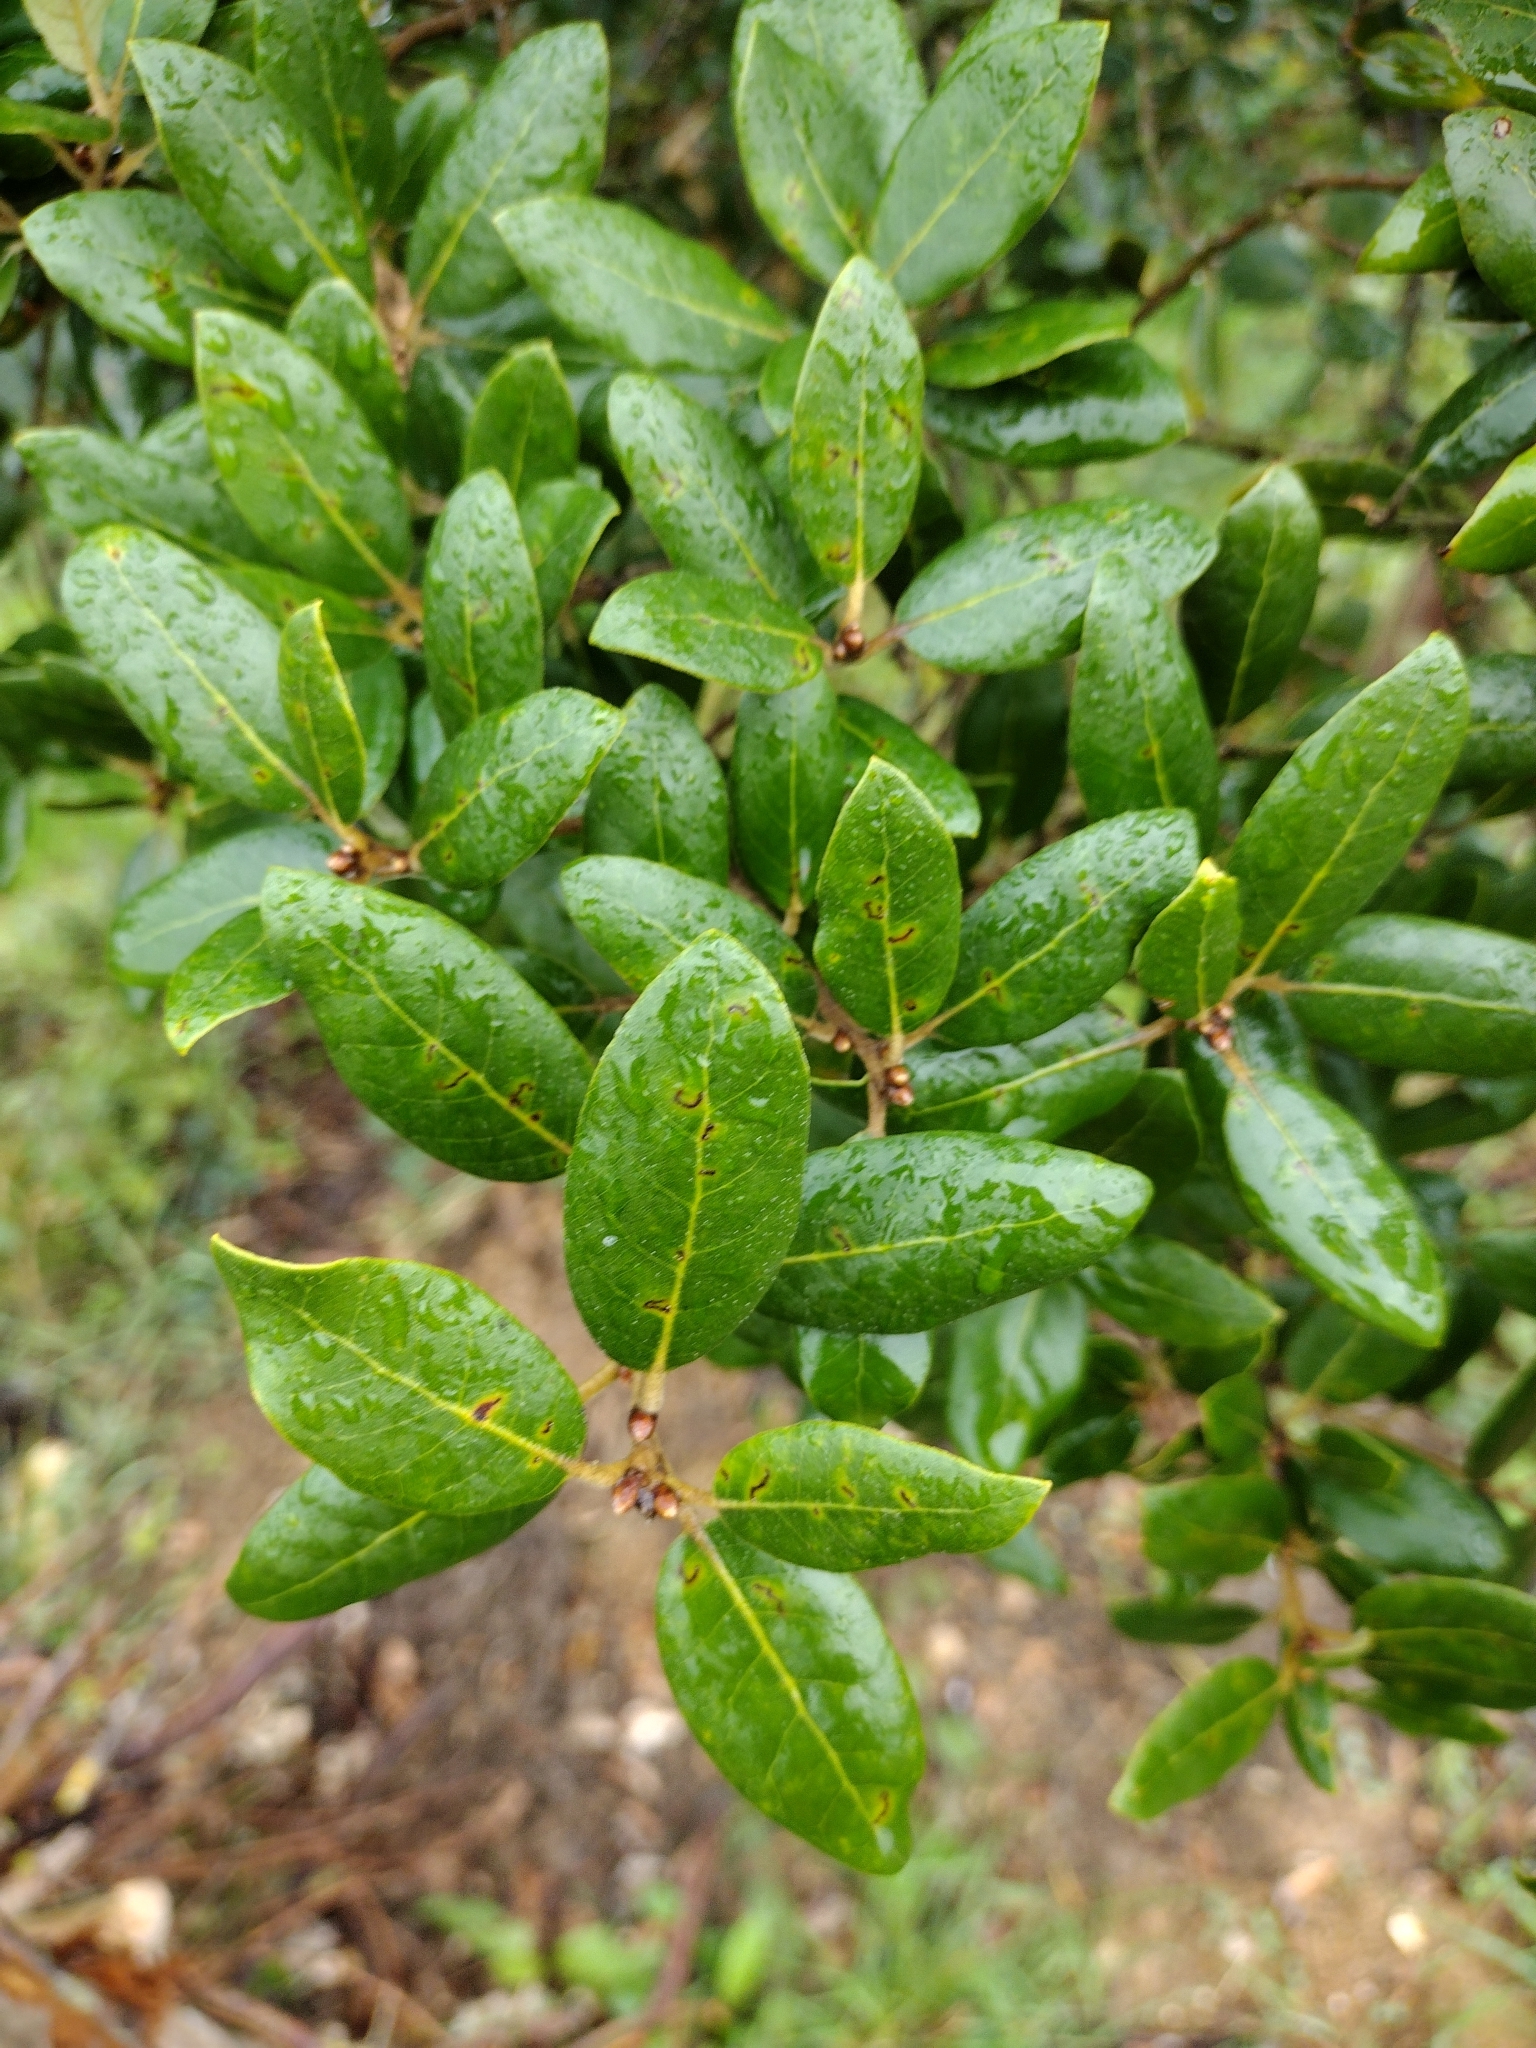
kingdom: Plantae
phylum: Tracheophyta
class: Magnoliopsida
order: Fagales
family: Fagaceae
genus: Quercus
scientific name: Quercus ilex
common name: Evergreen oak
